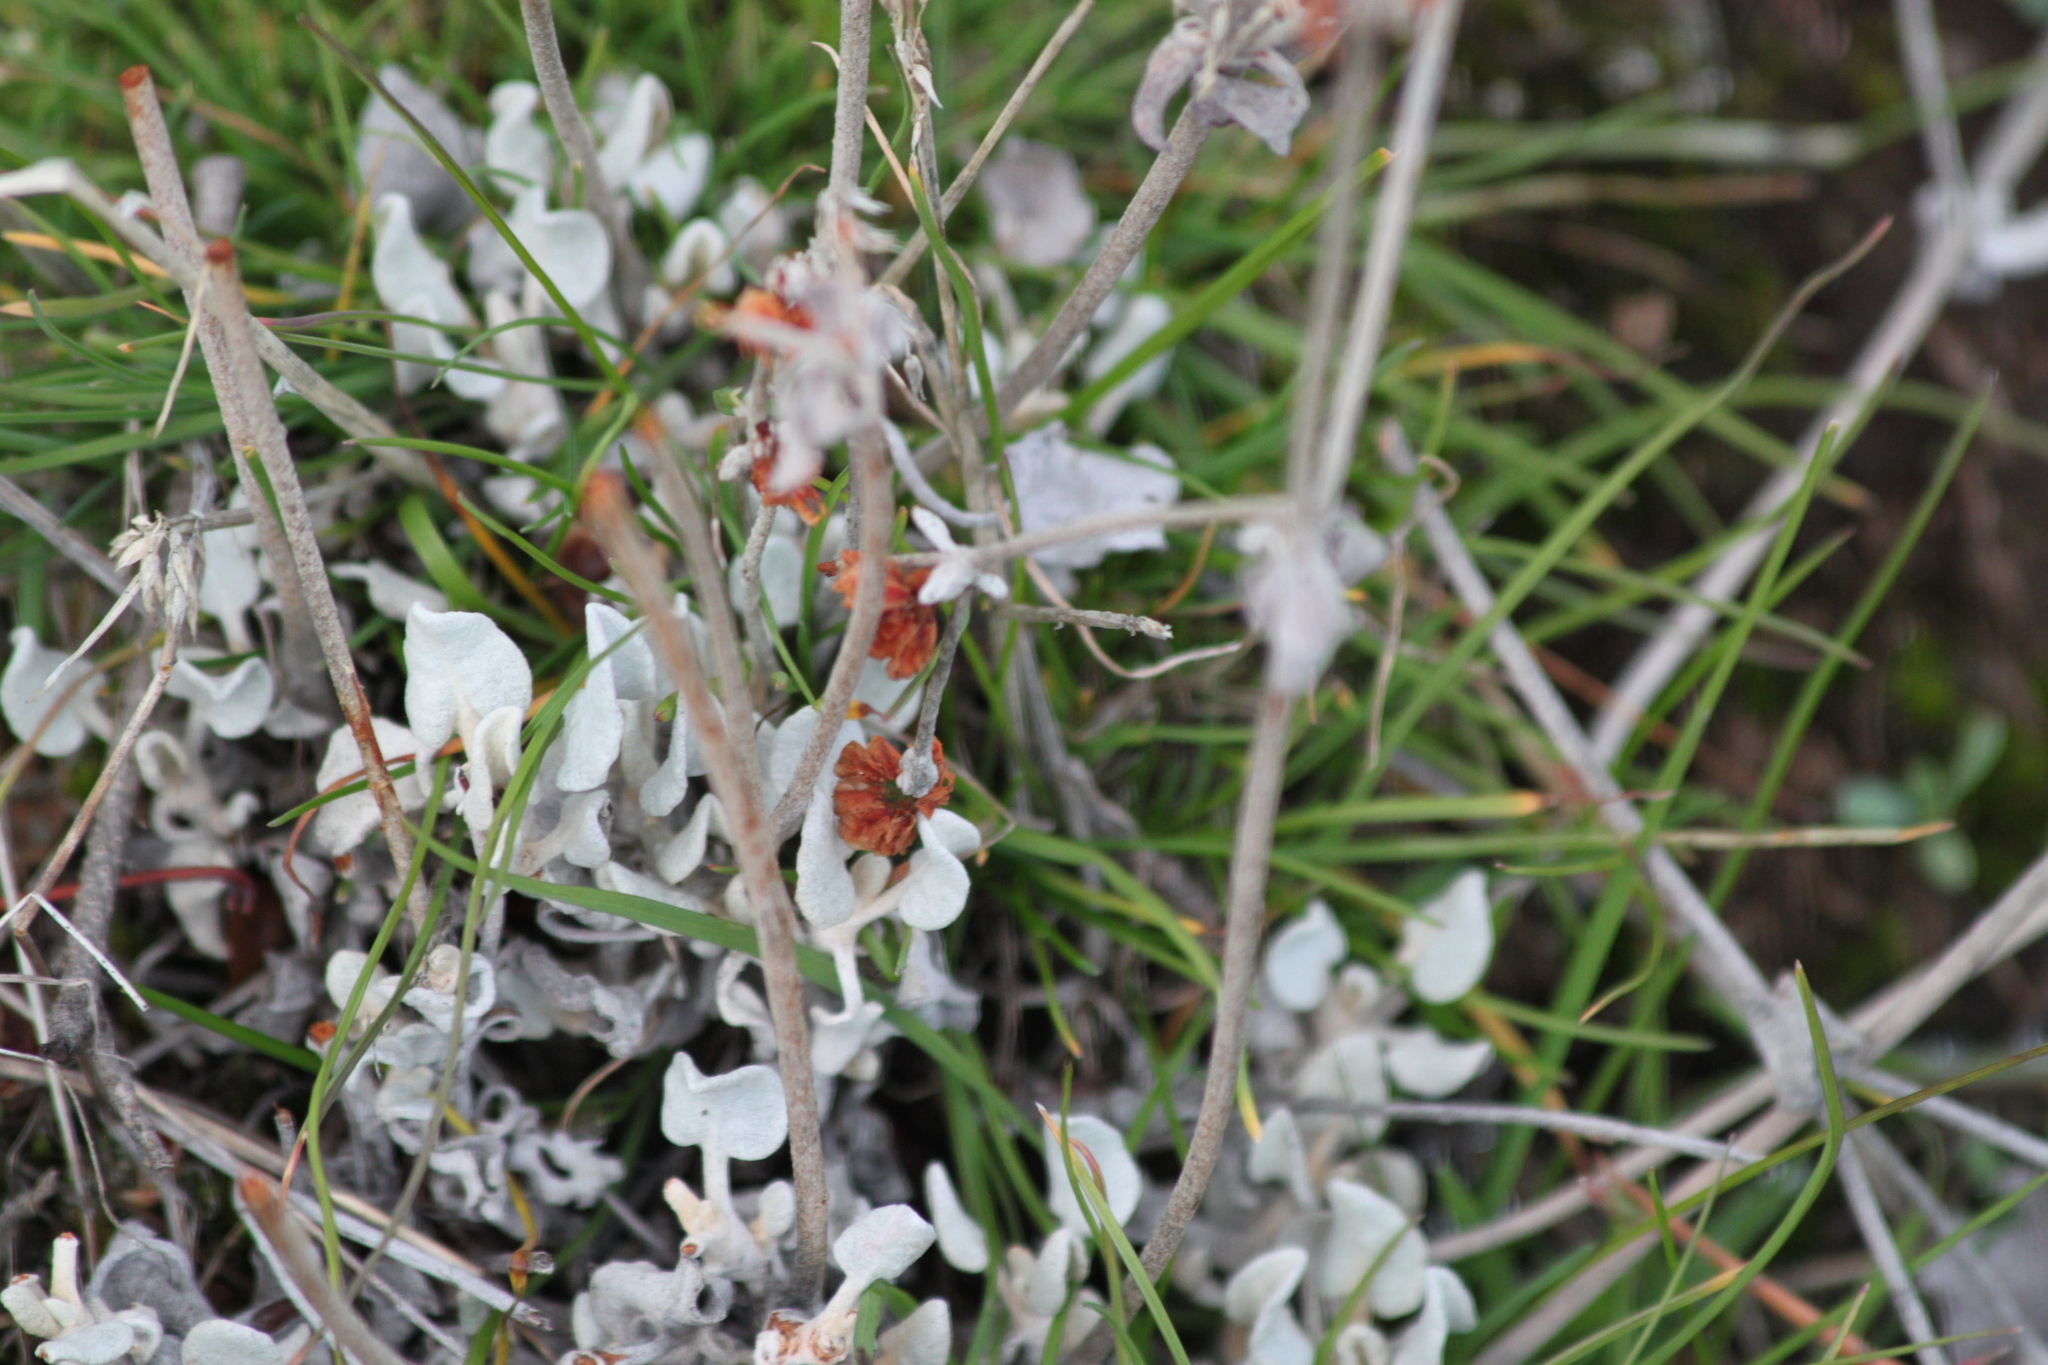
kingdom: Plantae
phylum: Tracheophyta
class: Magnoliopsida
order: Caryophyllales
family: Polygonaceae
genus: Eriogonum
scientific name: Eriogonum niveum
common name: Snow wild buckwheat
